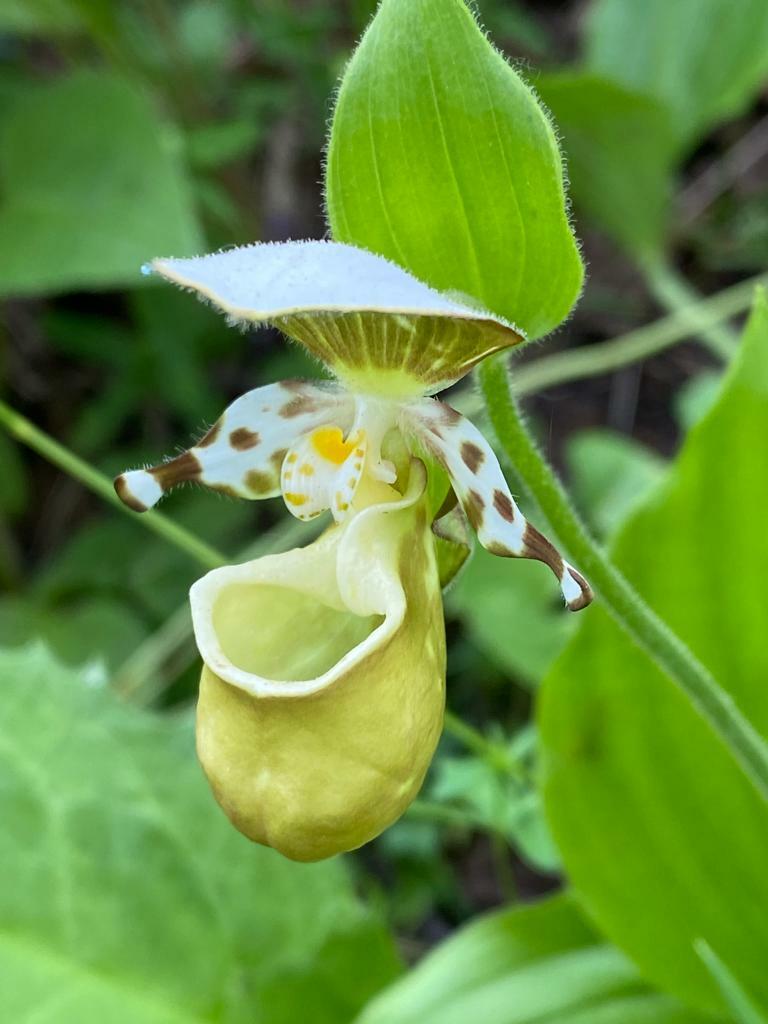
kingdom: Plantae
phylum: Tracheophyta
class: Liliopsida
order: Asparagales
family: Orchidaceae
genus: Cypripedium
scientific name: Cypripedium yatabeanum
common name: Spotted lady's slipper
